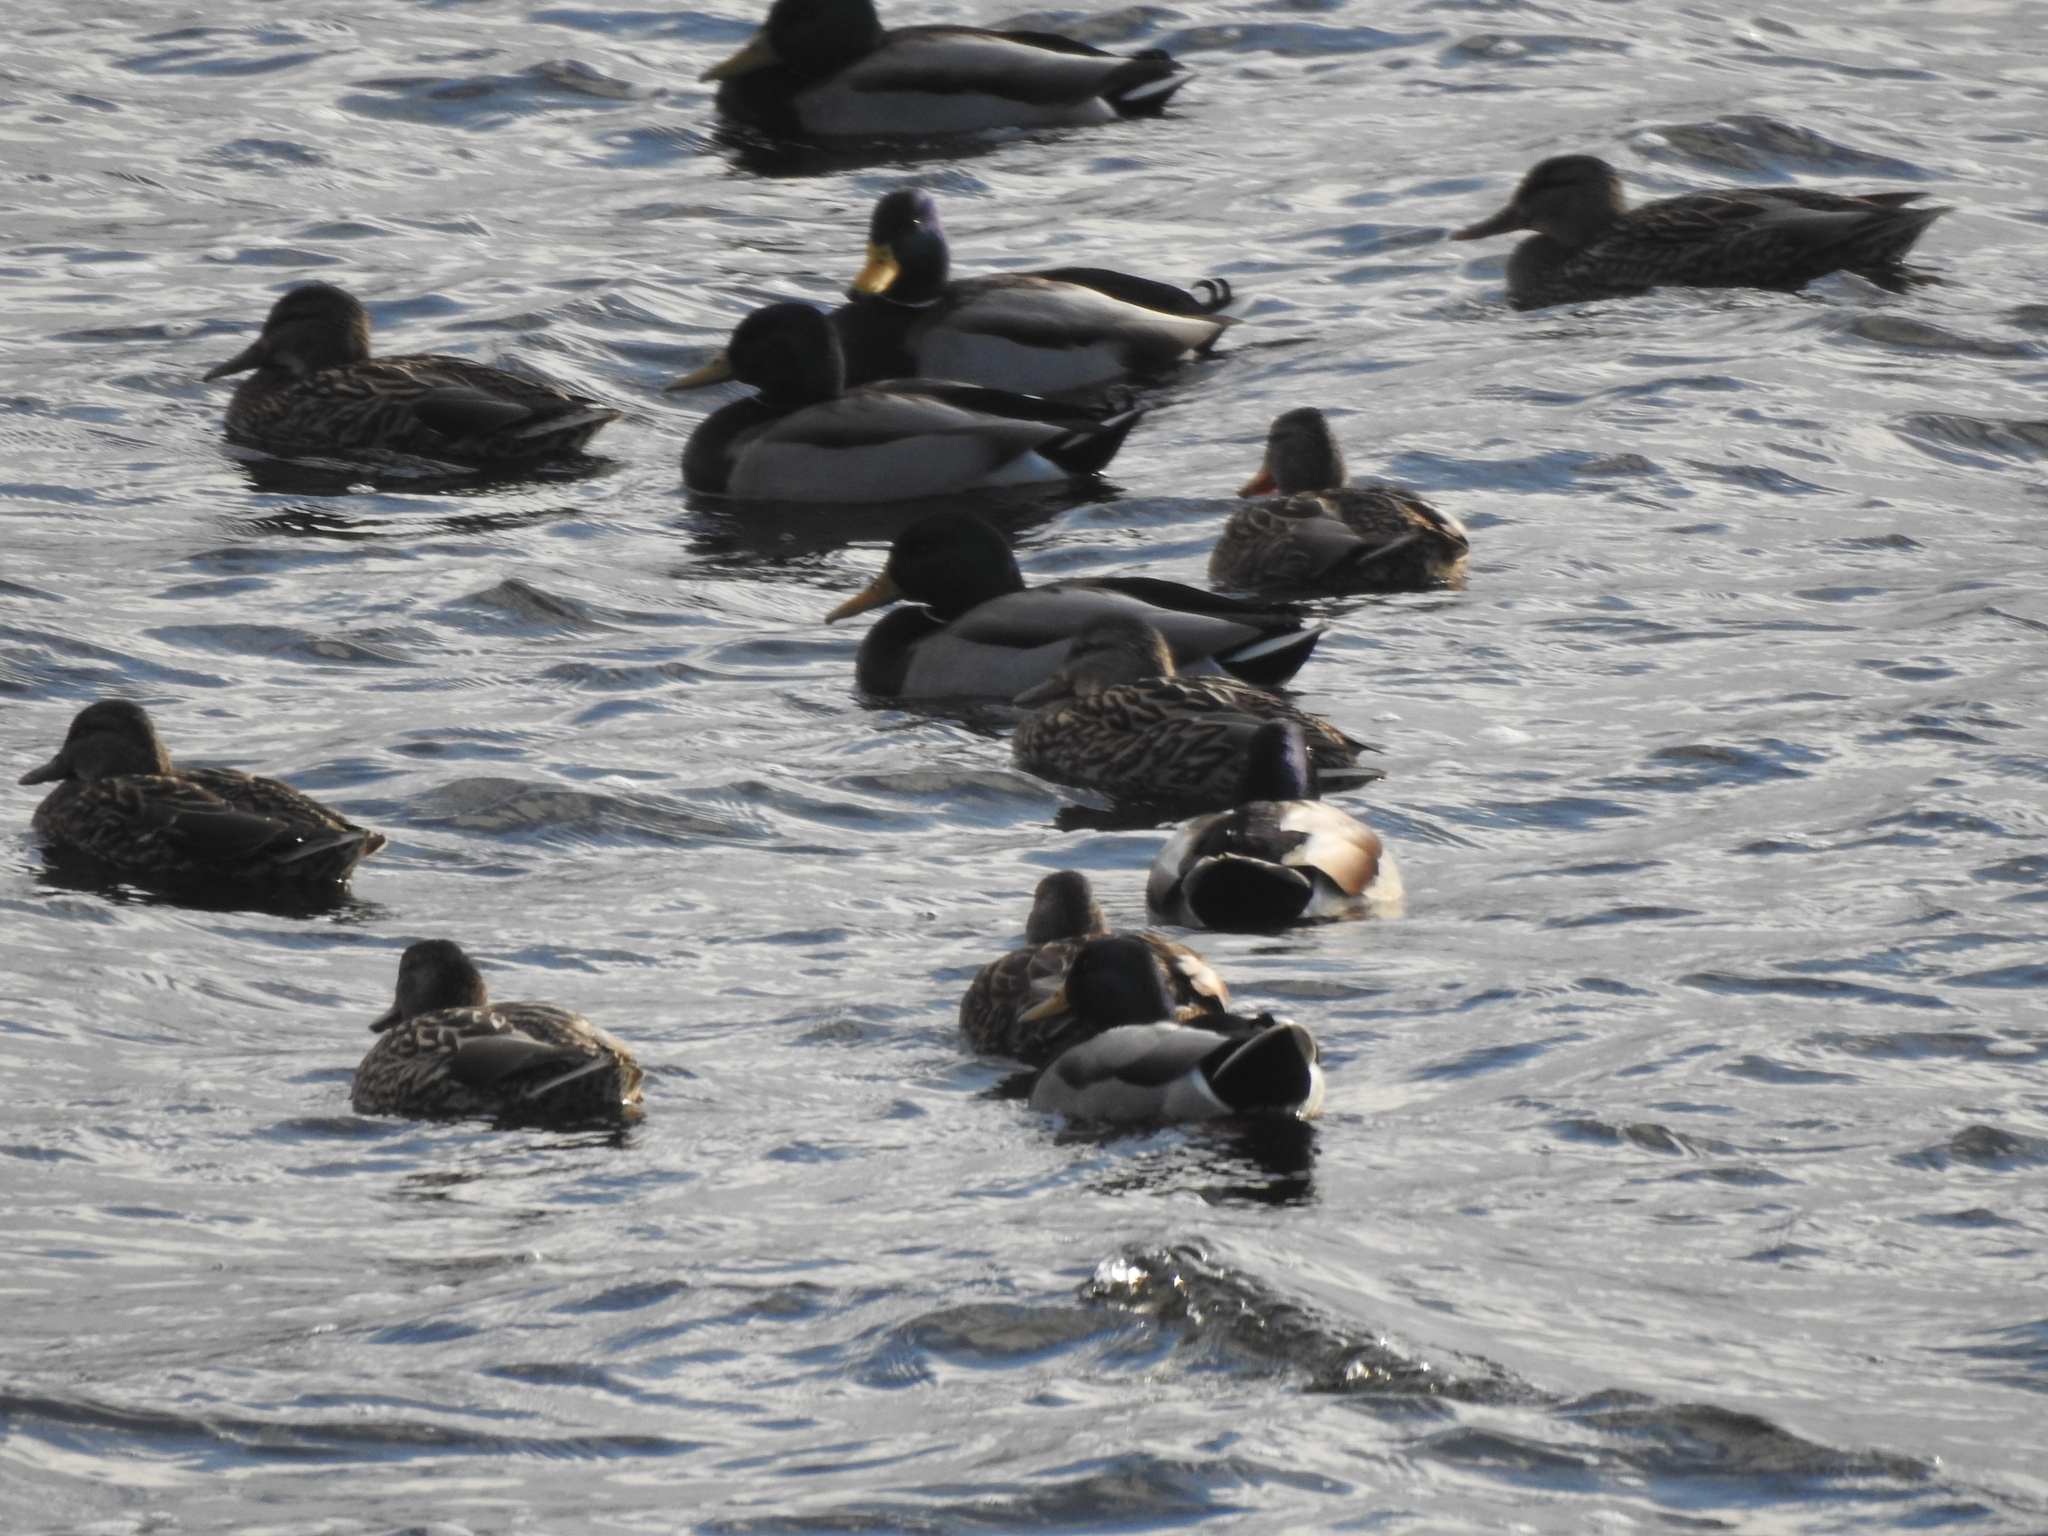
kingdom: Animalia
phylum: Chordata
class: Aves
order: Anseriformes
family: Anatidae
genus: Anas
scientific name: Anas platyrhynchos
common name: Mallard
